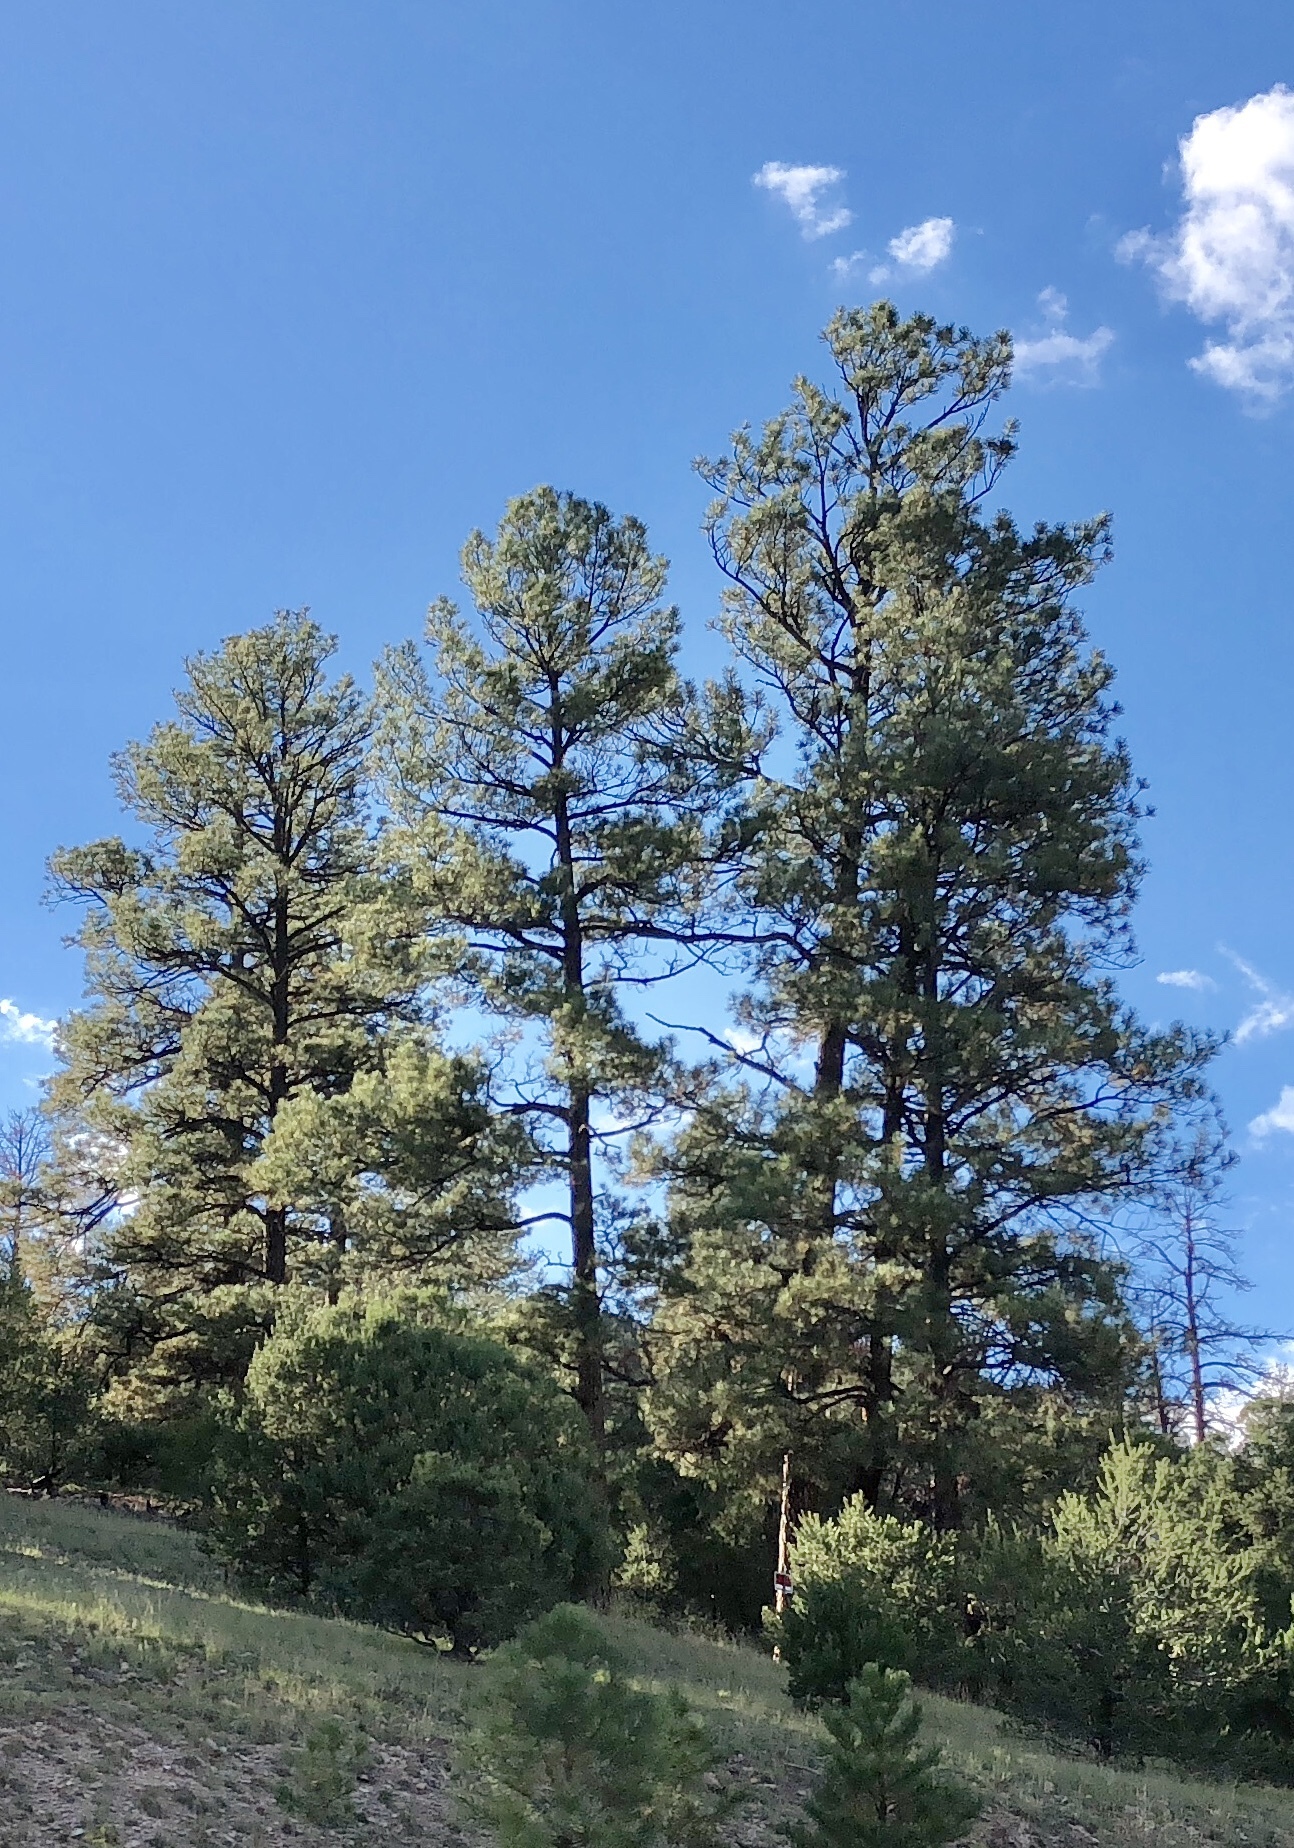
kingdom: Plantae
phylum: Tracheophyta
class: Pinopsida
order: Pinales
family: Pinaceae
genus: Pinus
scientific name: Pinus ponderosa
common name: Western yellow-pine
